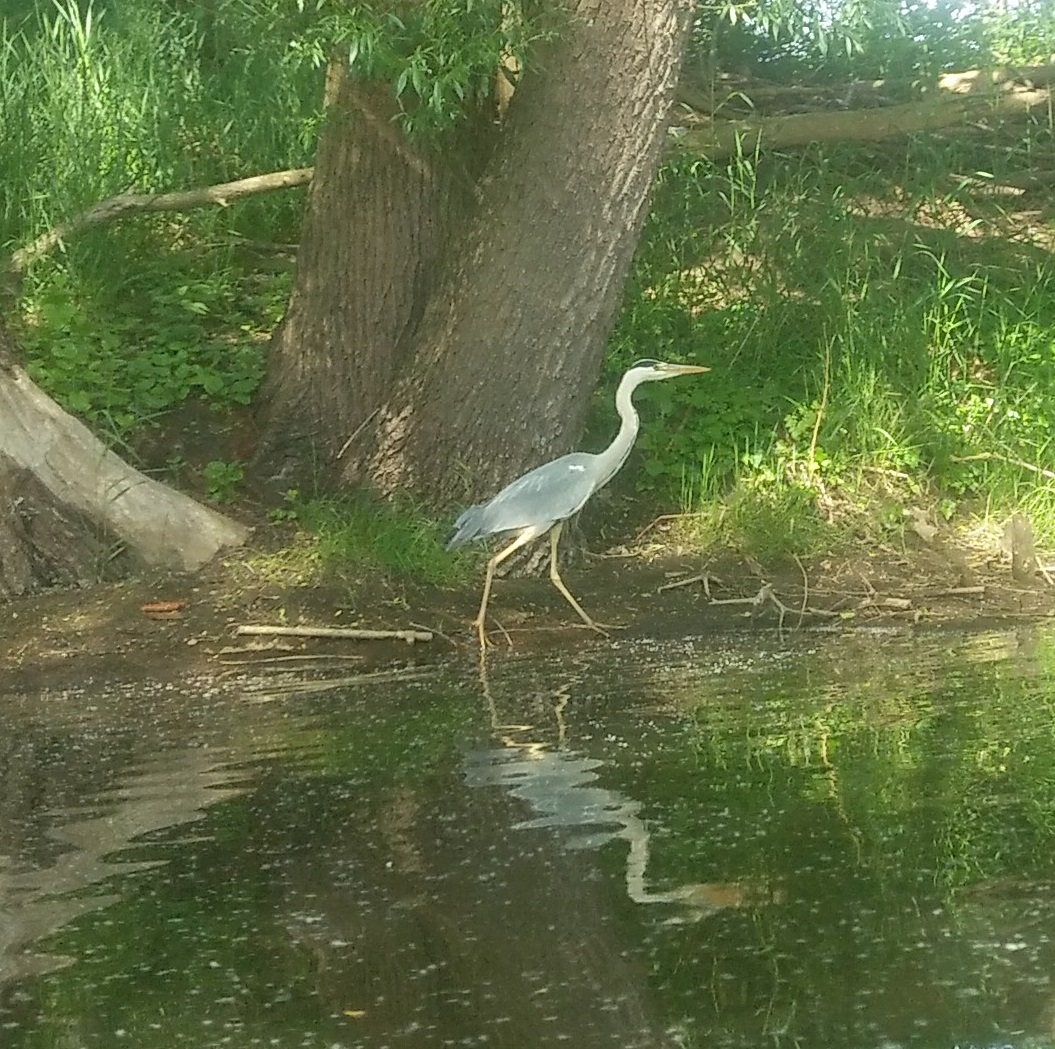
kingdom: Animalia
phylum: Chordata
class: Aves
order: Pelecaniformes
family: Ardeidae
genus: Ardea
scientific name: Ardea cinerea
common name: Grey heron
